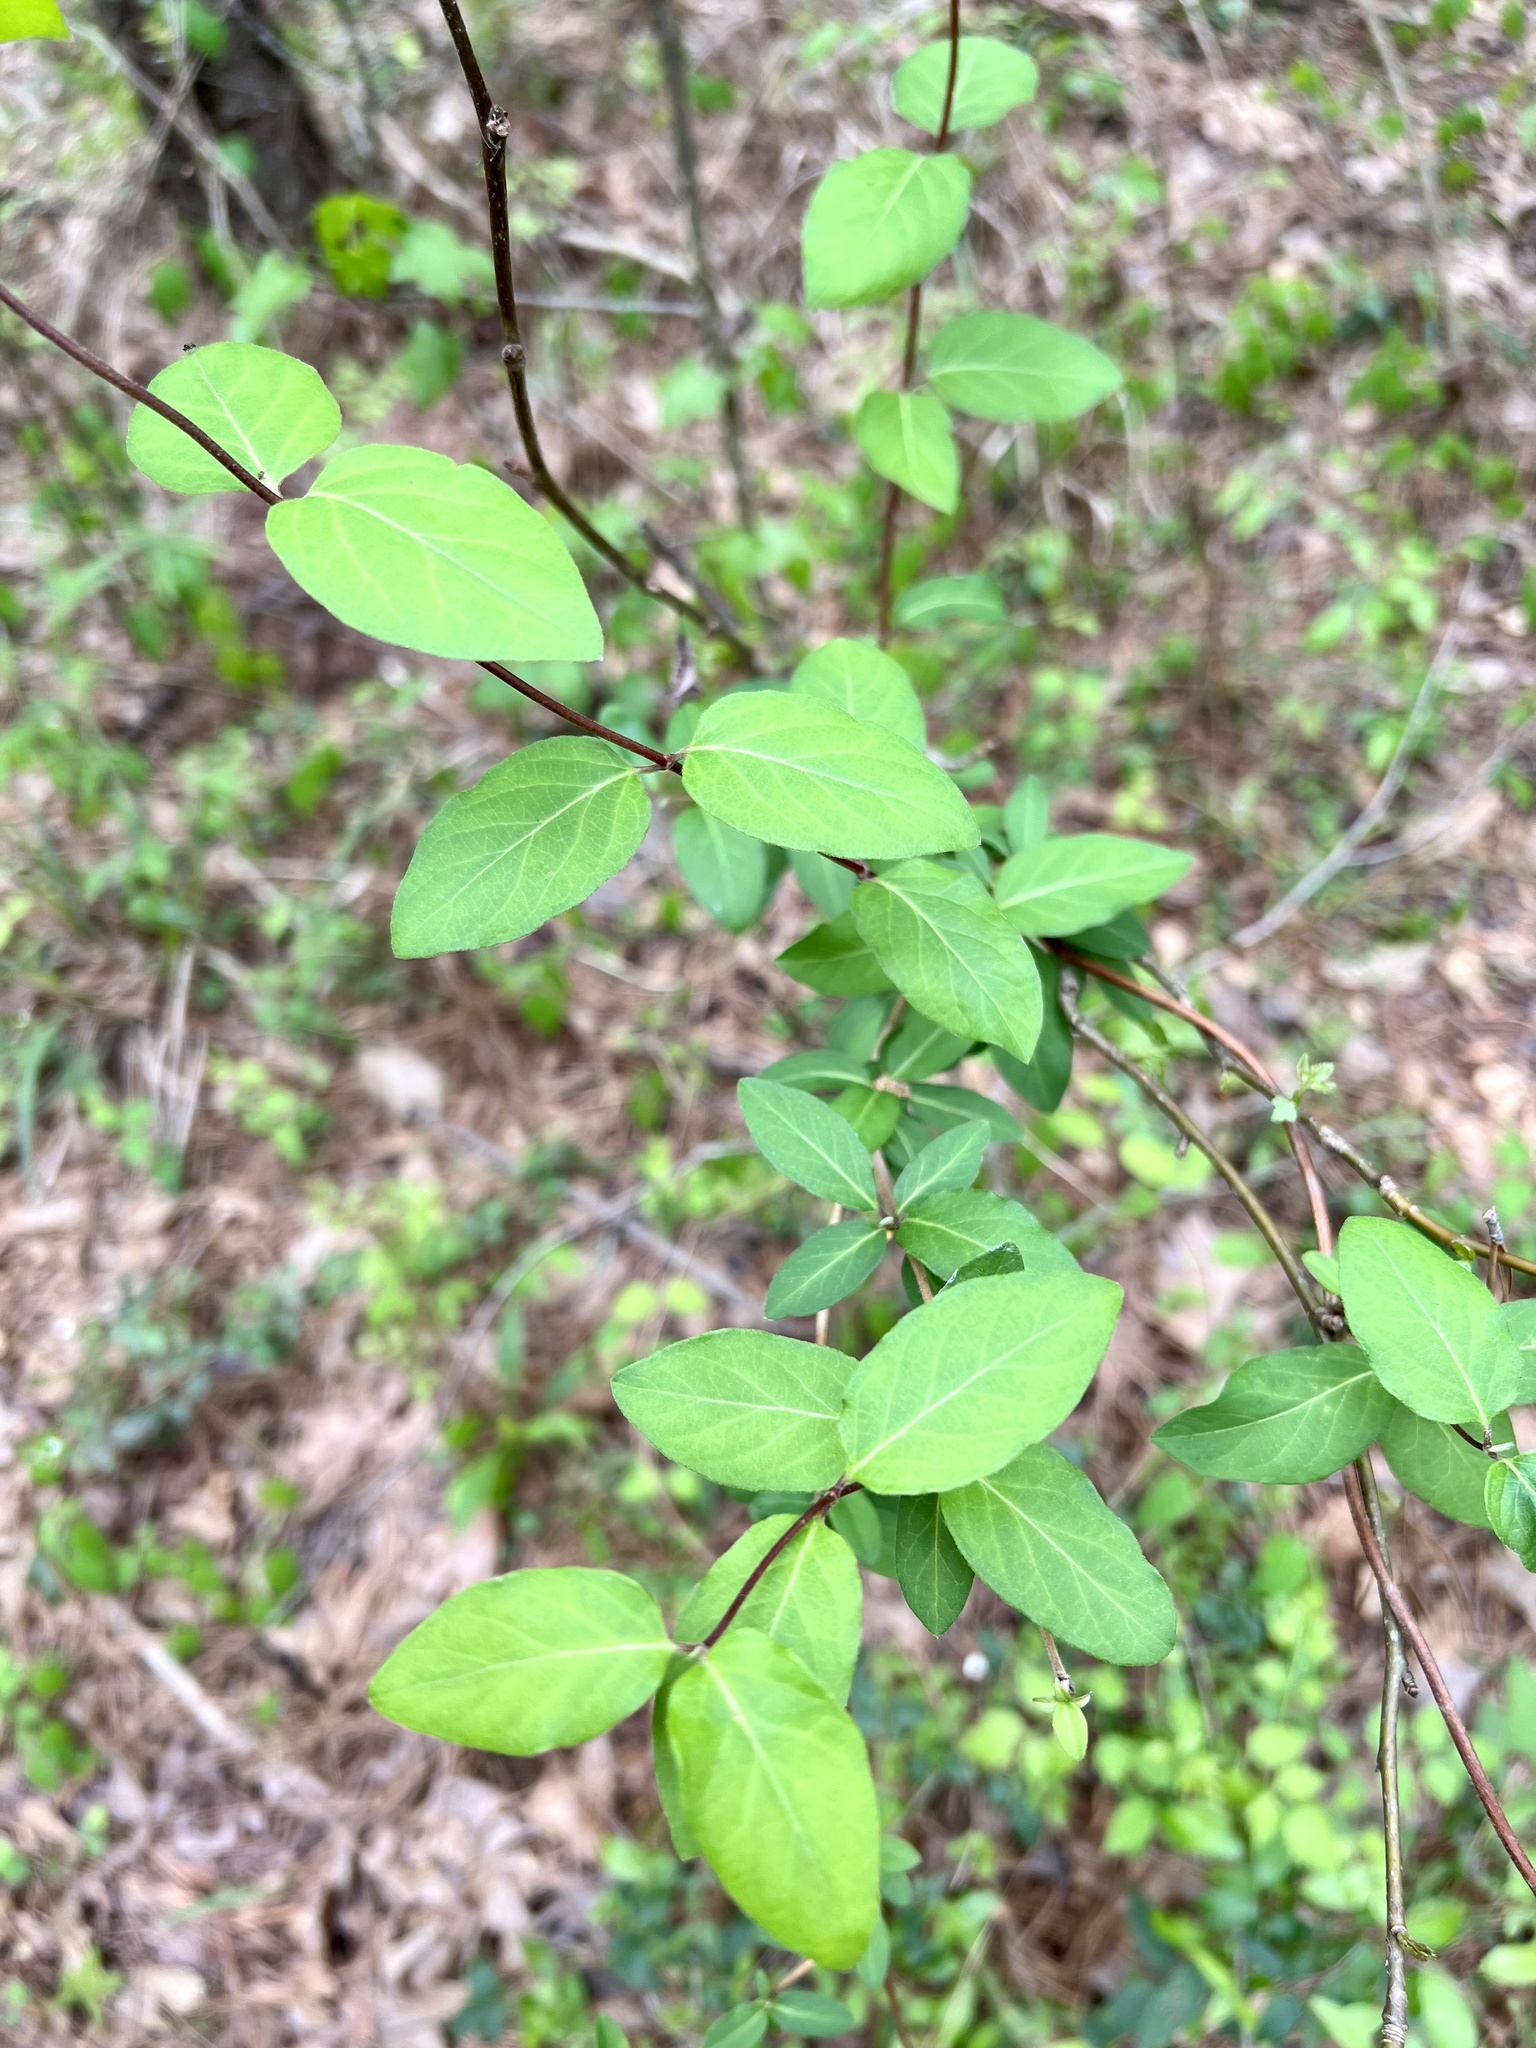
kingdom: Plantae
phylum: Tracheophyta
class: Magnoliopsida
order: Dipsacales
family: Caprifoliaceae
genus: Lonicera
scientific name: Lonicera japonica
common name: Japanese honeysuckle
